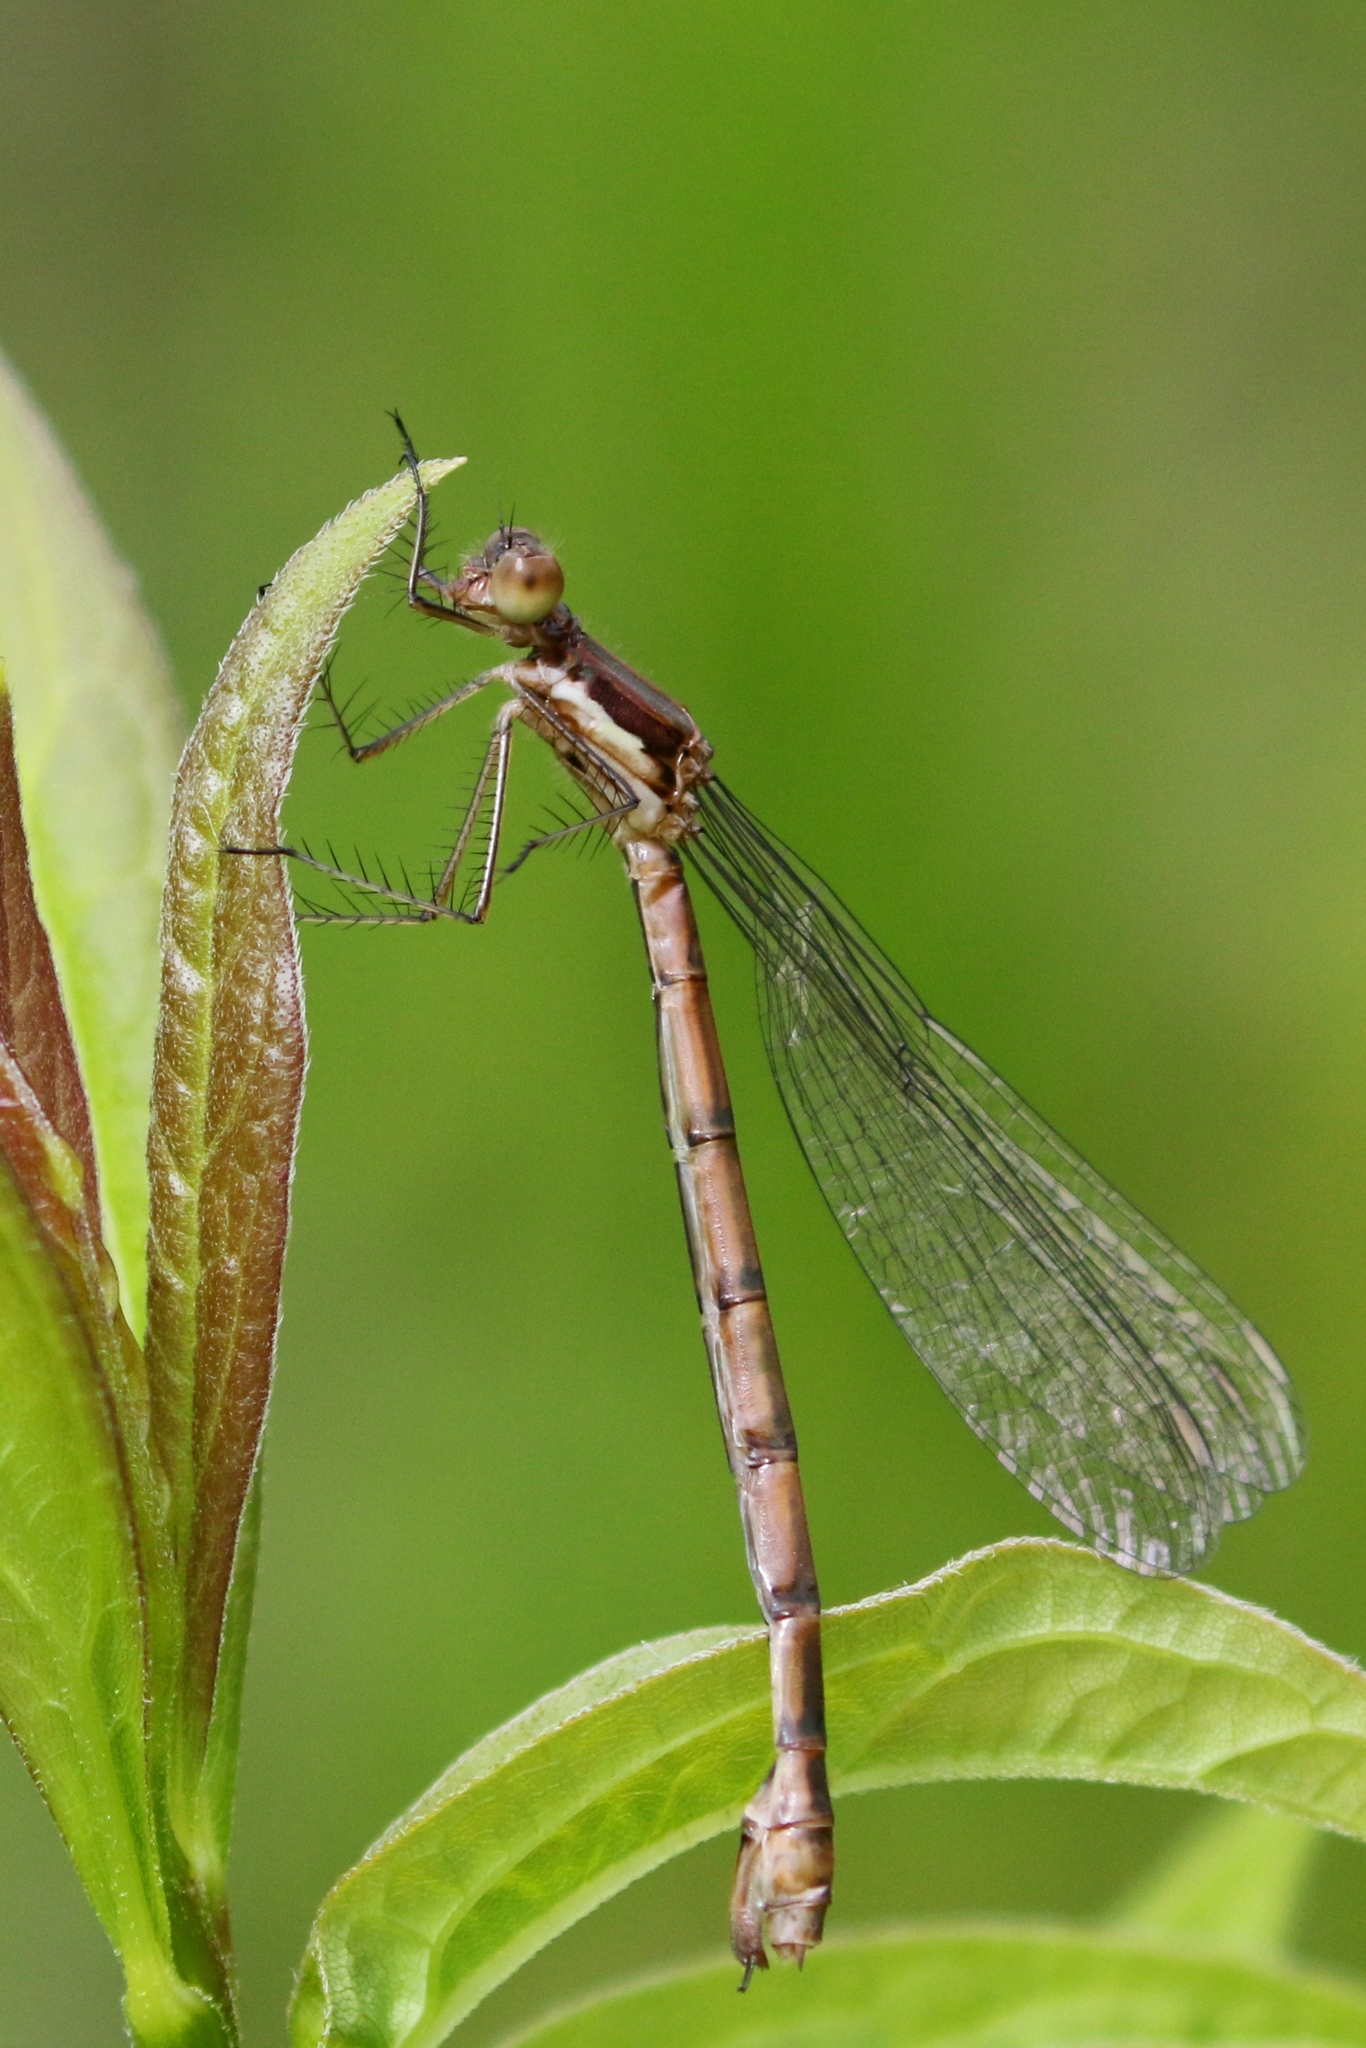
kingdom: Animalia
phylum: Arthropoda
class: Insecta
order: Odonata
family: Lestidae
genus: Lestes
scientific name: Lestes forcipatus
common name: Sweetflag spreadwing
